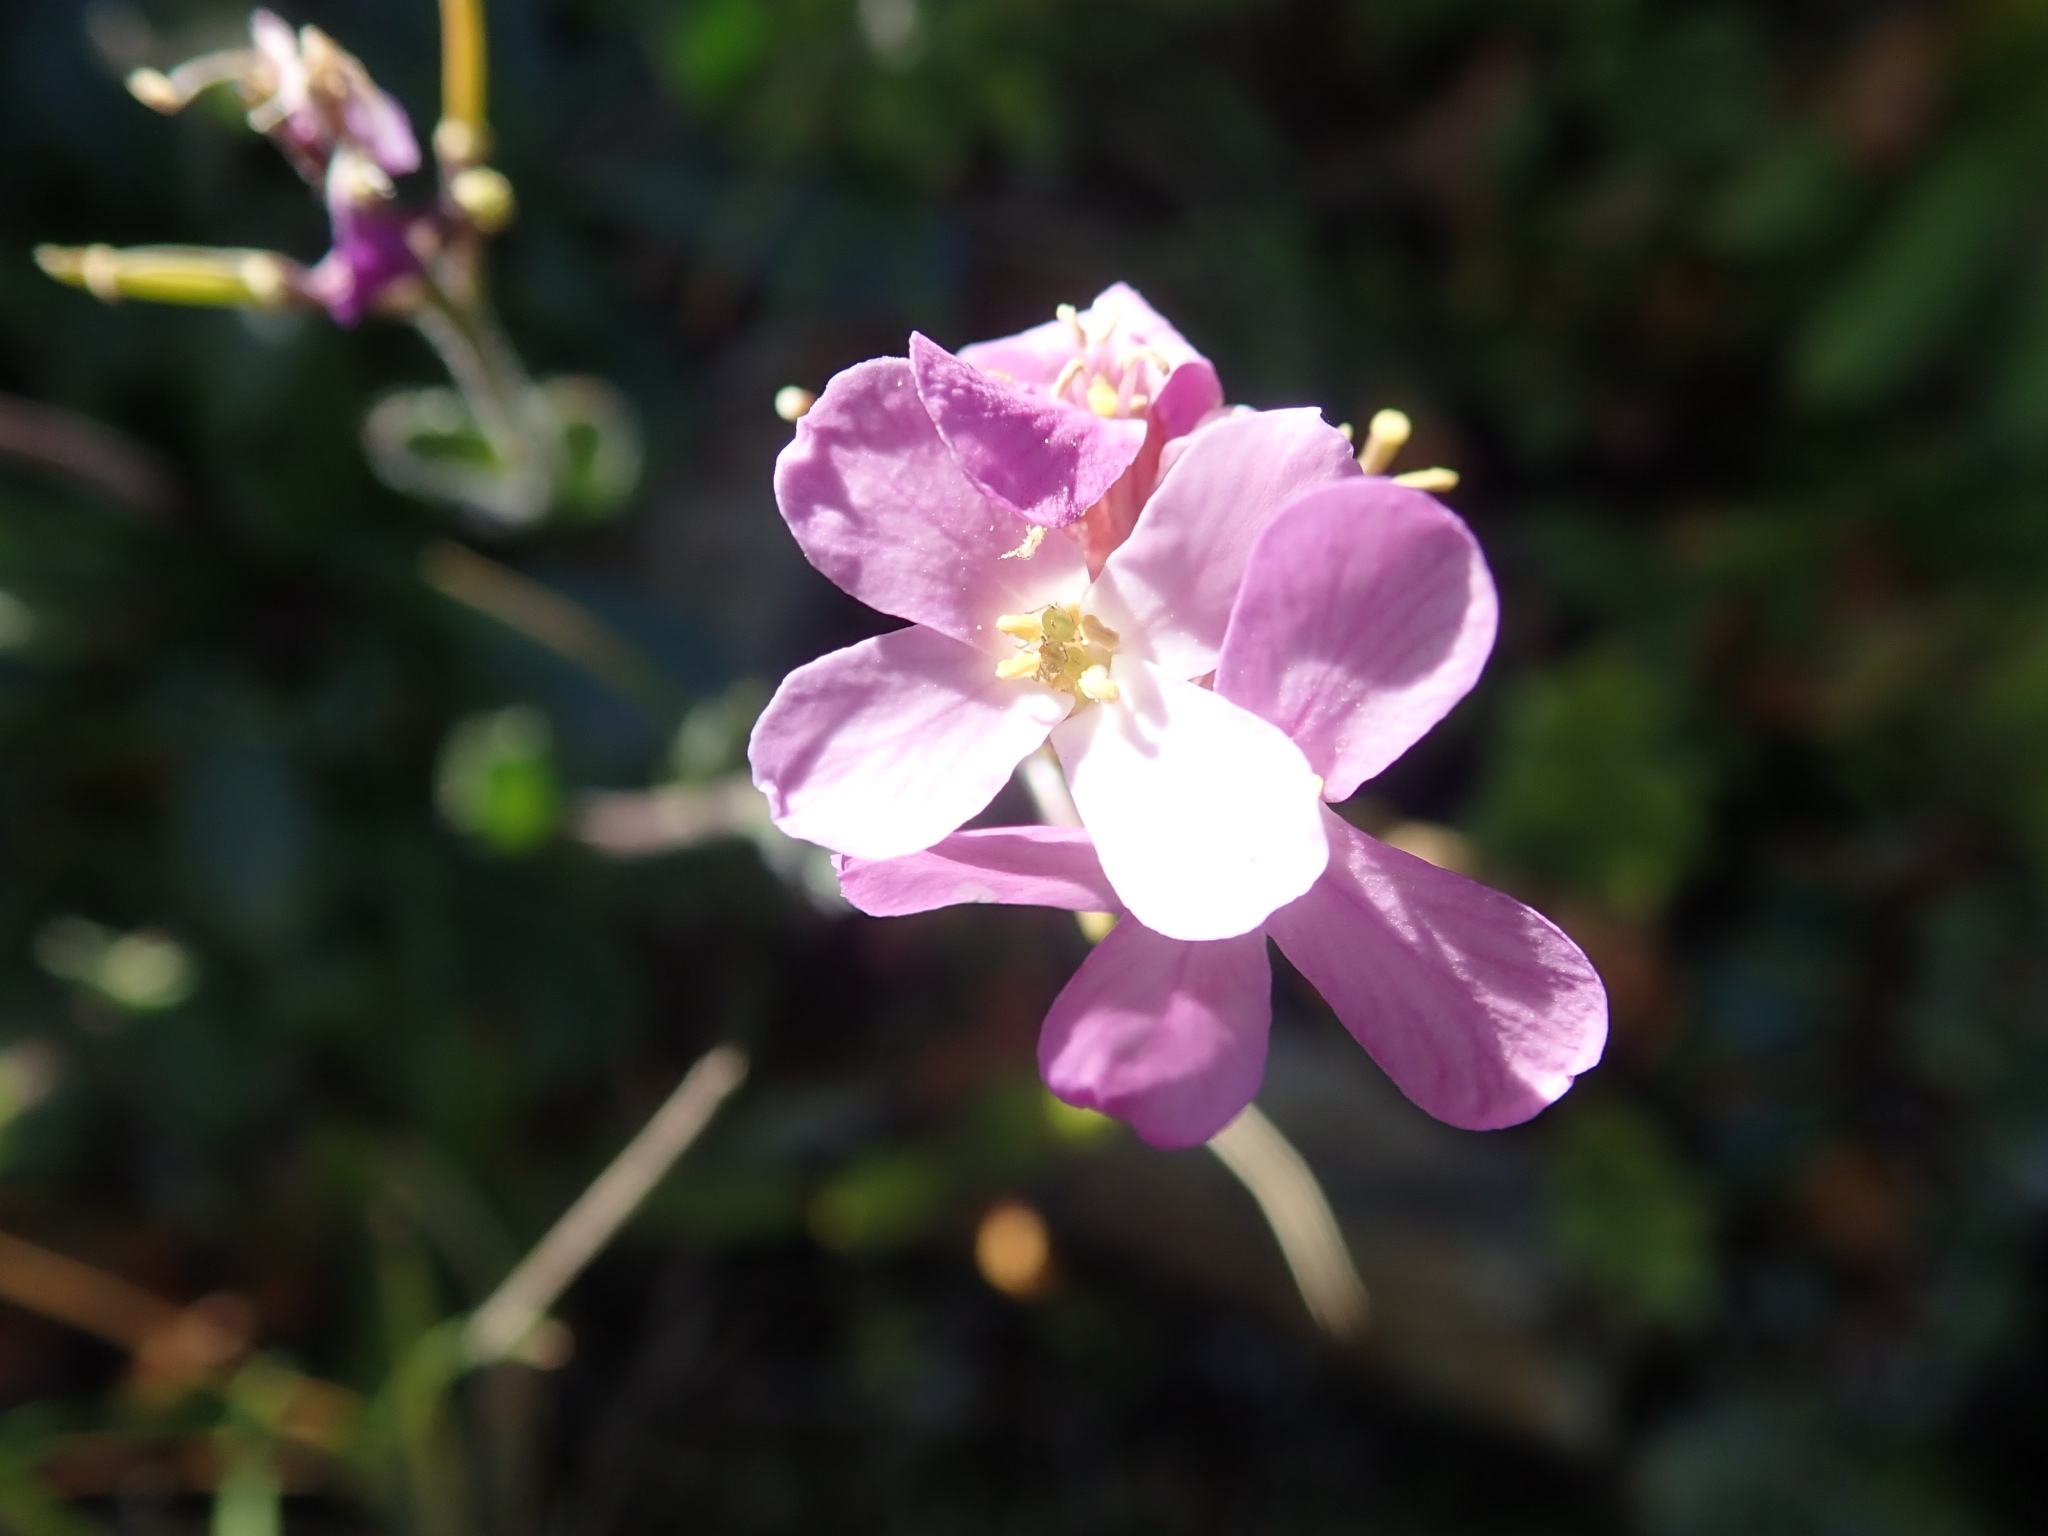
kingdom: Plantae
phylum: Tracheophyta
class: Magnoliopsida
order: Brassicales
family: Brassicaceae
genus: Arabis
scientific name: Arabis blepharophylla
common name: Rose rockcress
